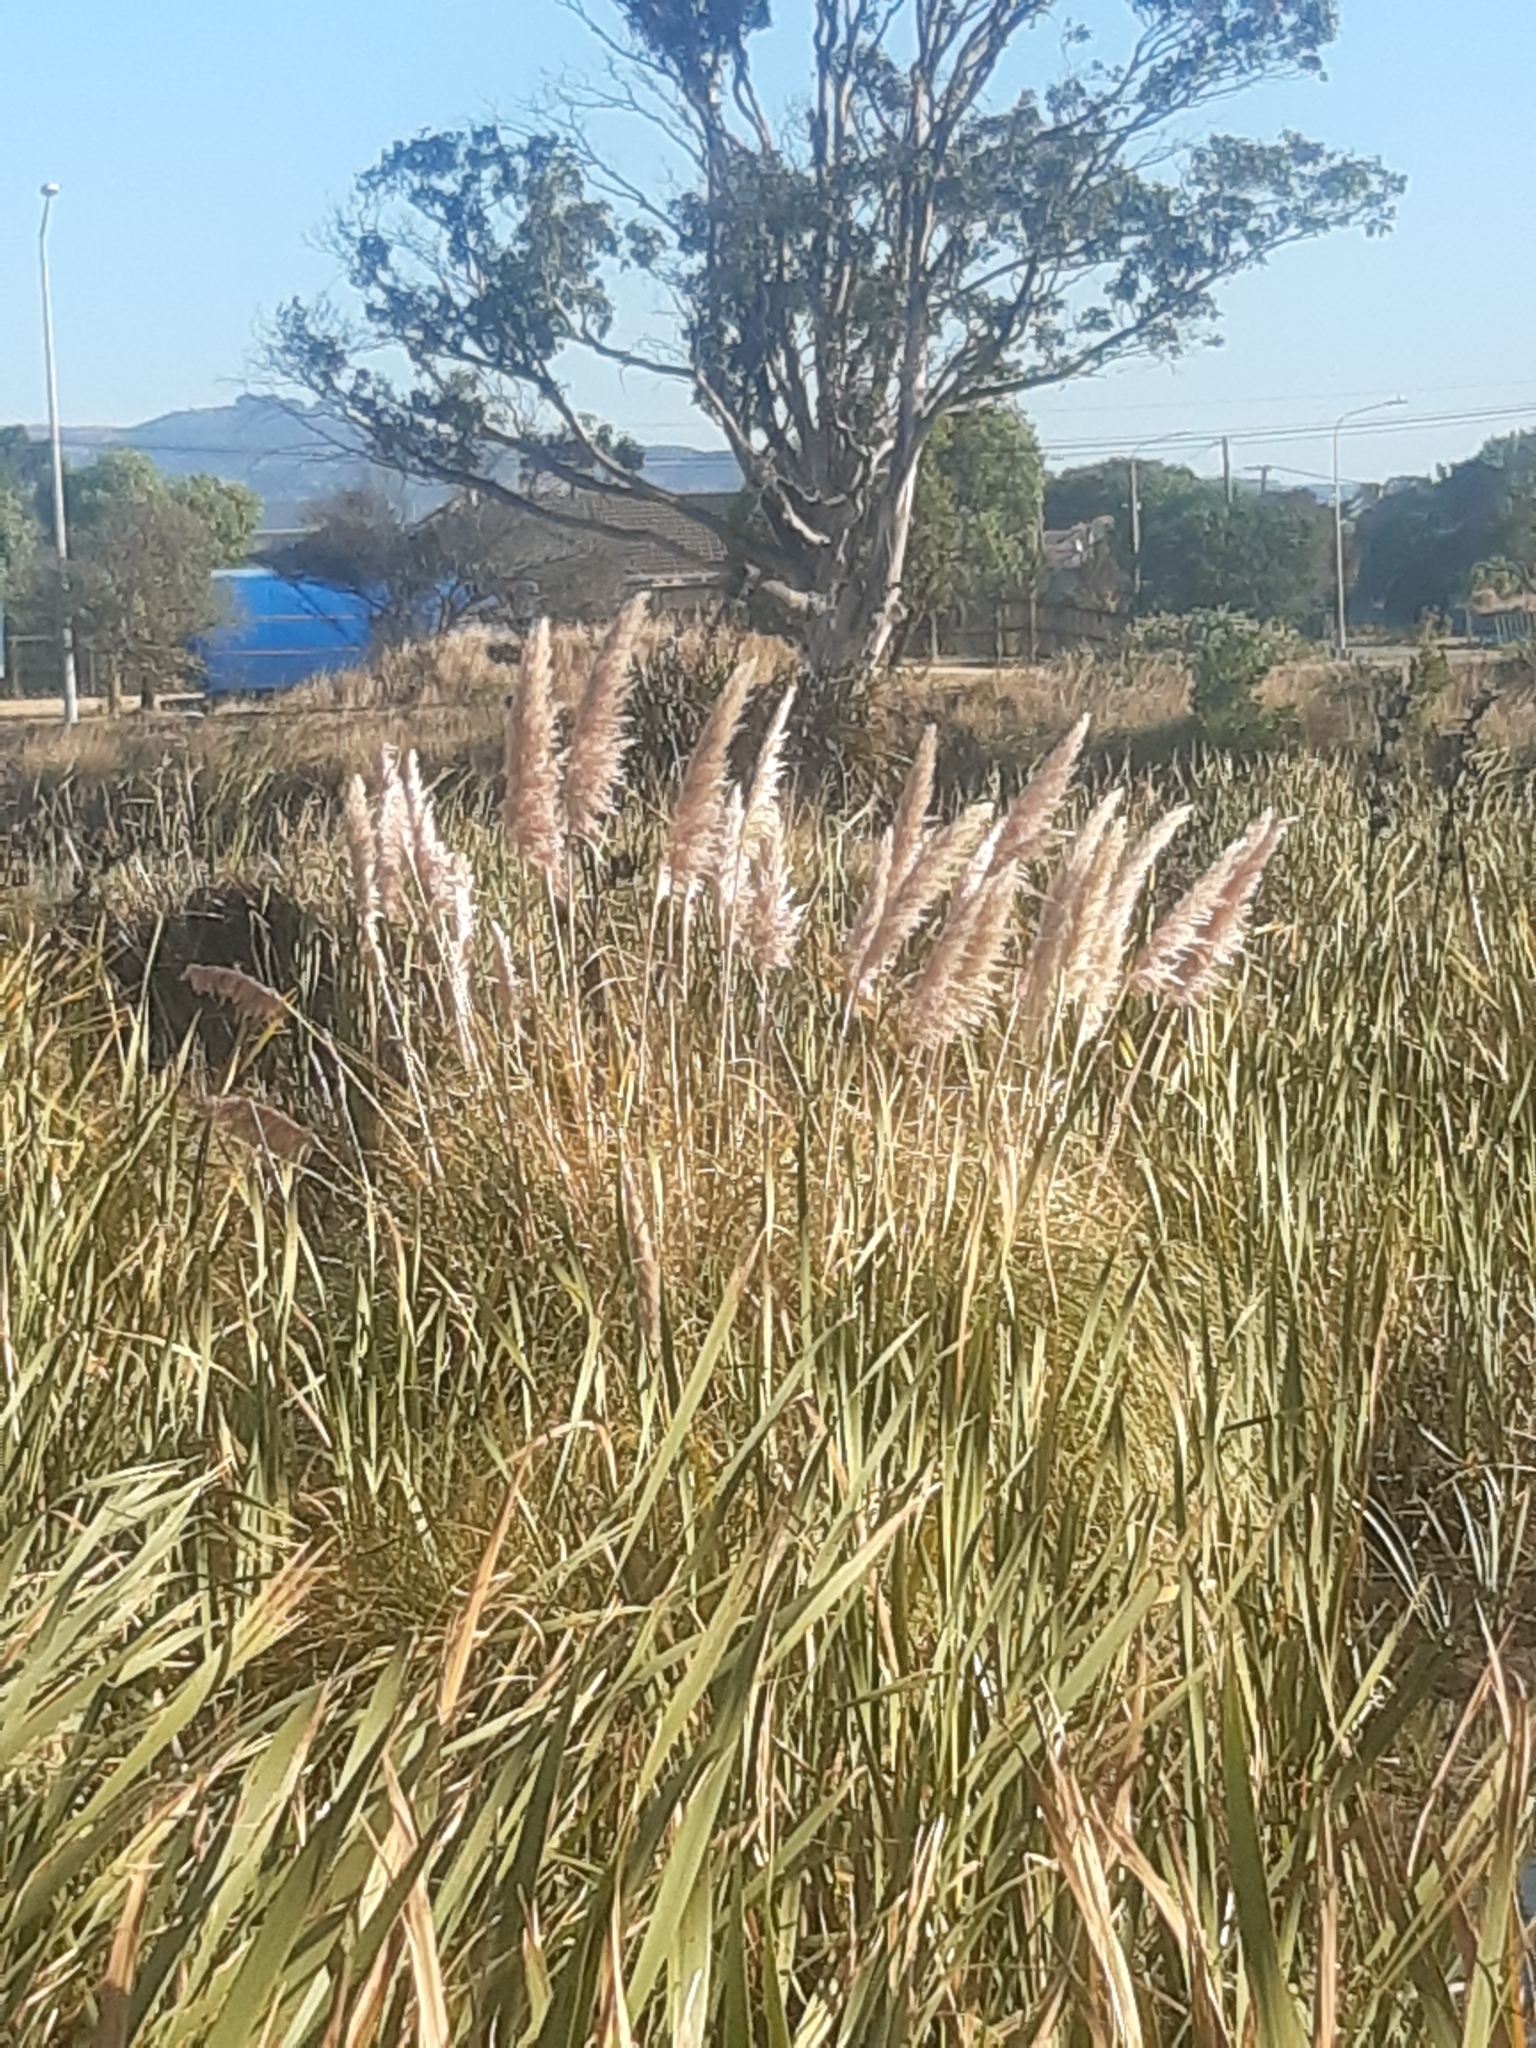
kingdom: Plantae
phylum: Tracheophyta
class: Liliopsida
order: Poales
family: Poaceae
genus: Cortaderia
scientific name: Cortaderia selloana
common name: Uruguayan pampas grass
